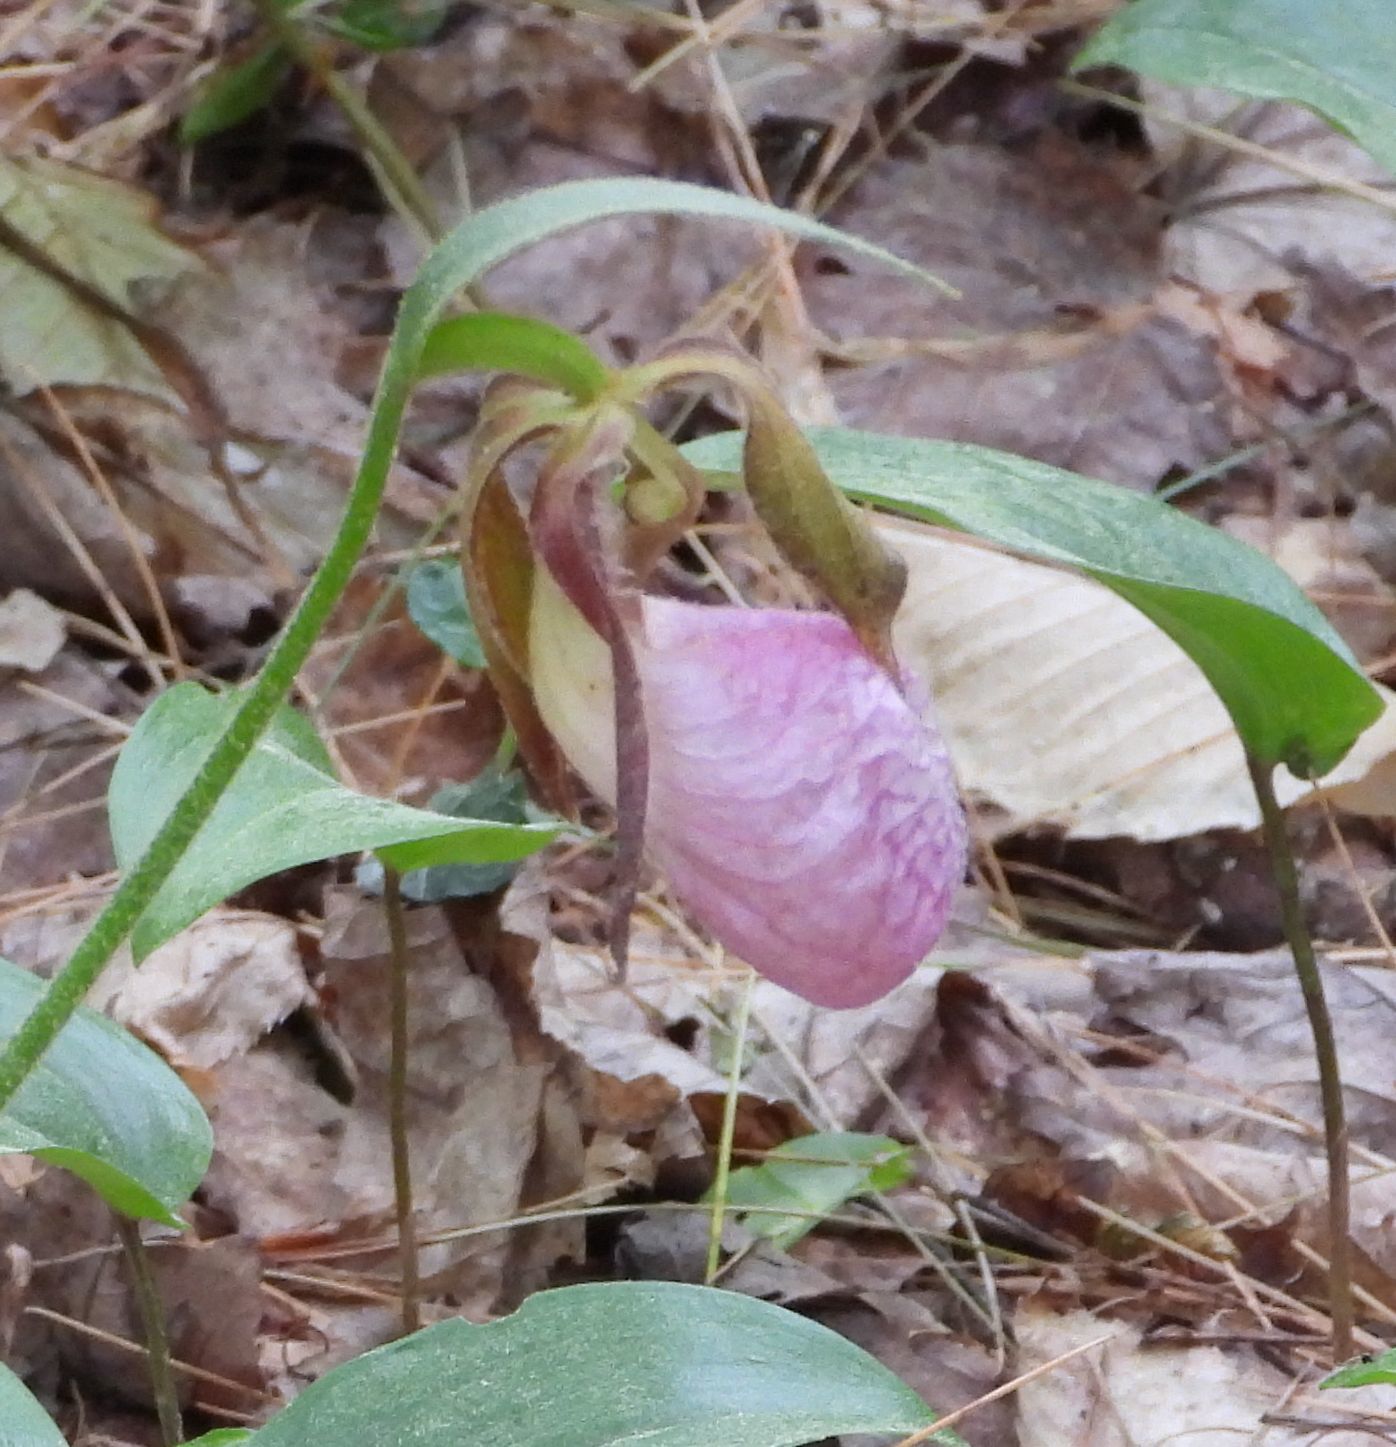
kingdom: Plantae
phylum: Tracheophyta
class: Liliopsida
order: Asparagales
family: Orchidaceae
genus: Cypripedium
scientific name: Cypripedium acaule
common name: Pink lady's-slipper
